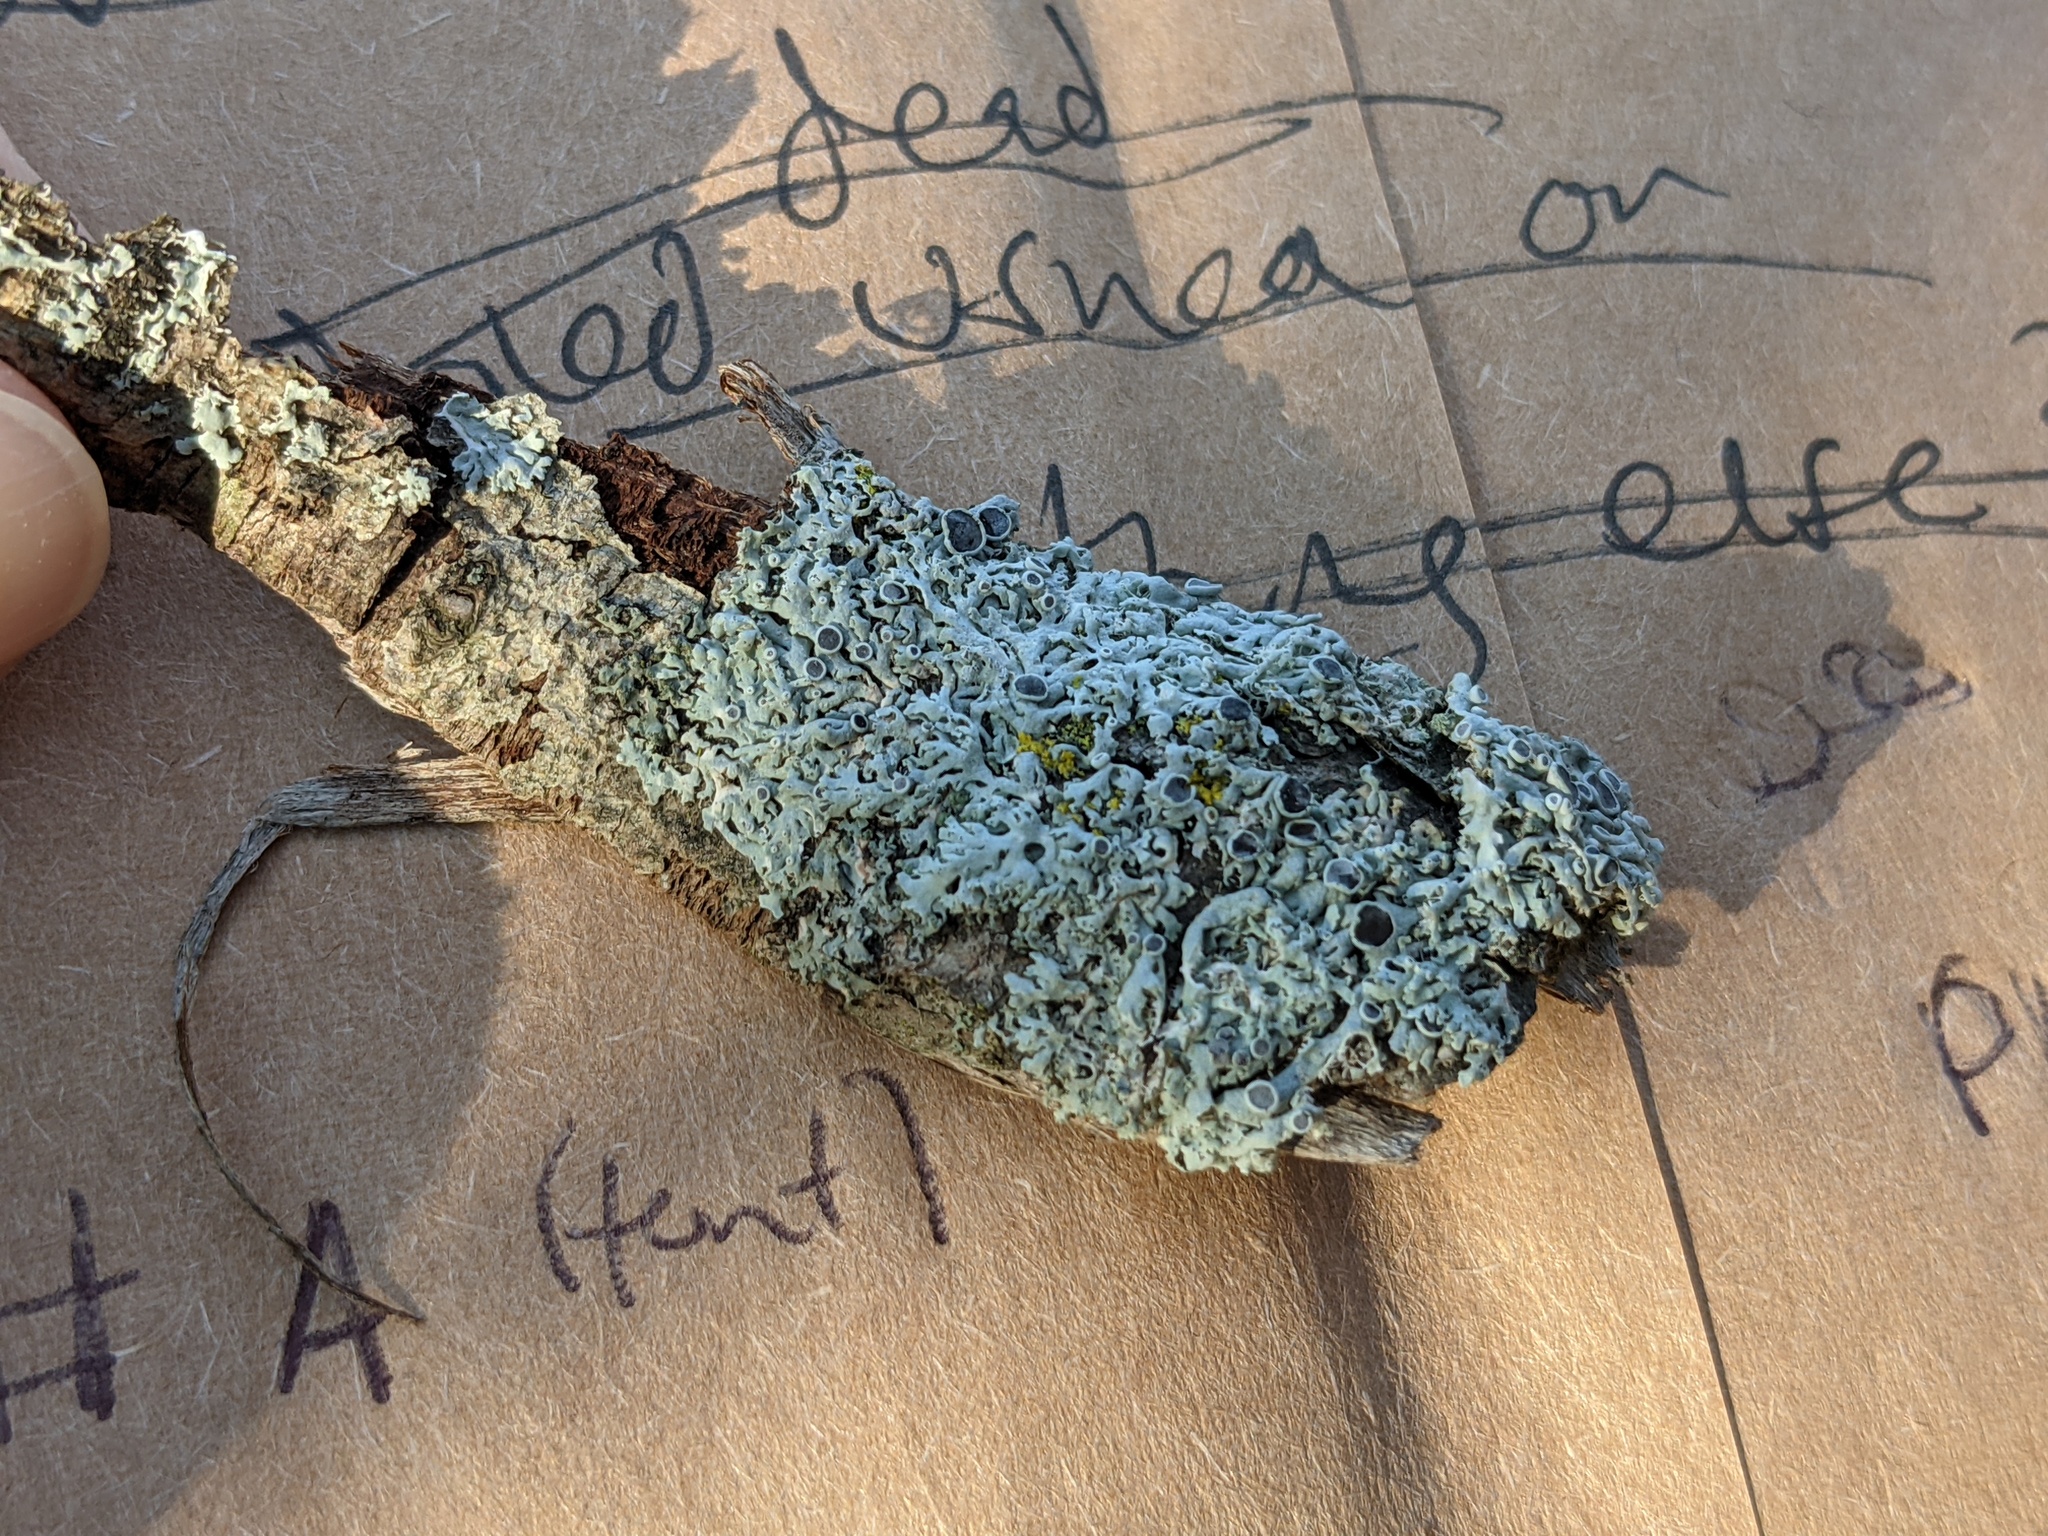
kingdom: Fungi
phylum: Ascomycota
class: Lecanoromycetes
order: Caliciales
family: Physciaceae
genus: Physcia
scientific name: Physcia stellaris
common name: Star rosette lichen
